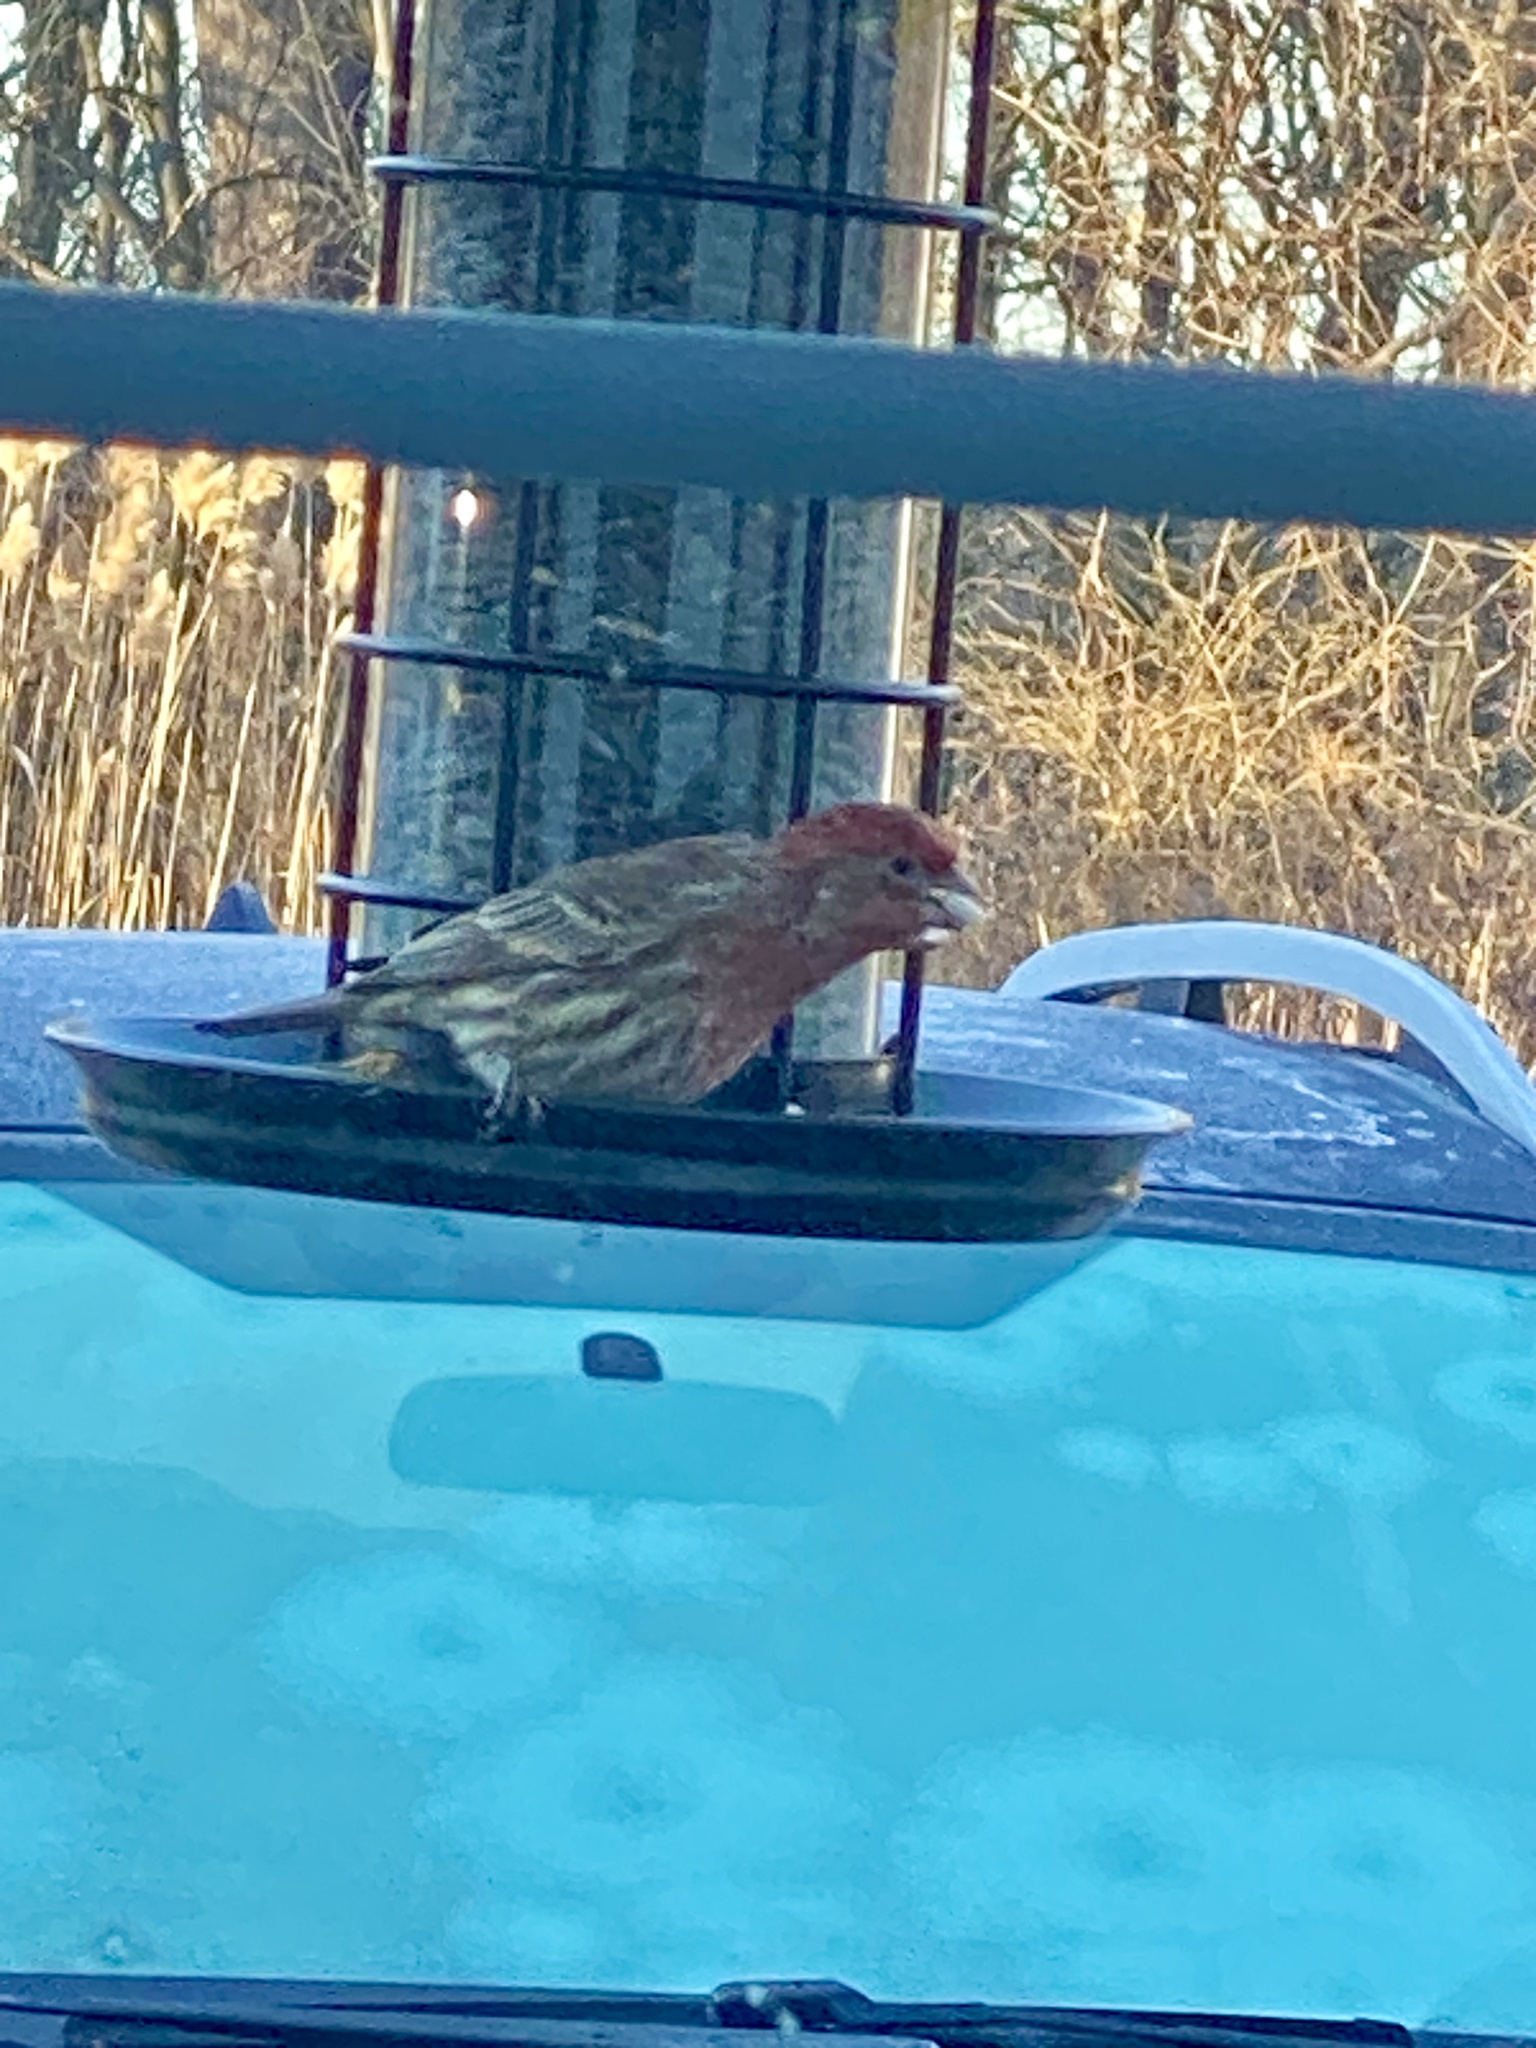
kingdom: Animalia
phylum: Chordata
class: Aves
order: Passeriformes
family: Fringillidae
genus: Haemorhous
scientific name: Haemorhous mexicanus
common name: House finch
